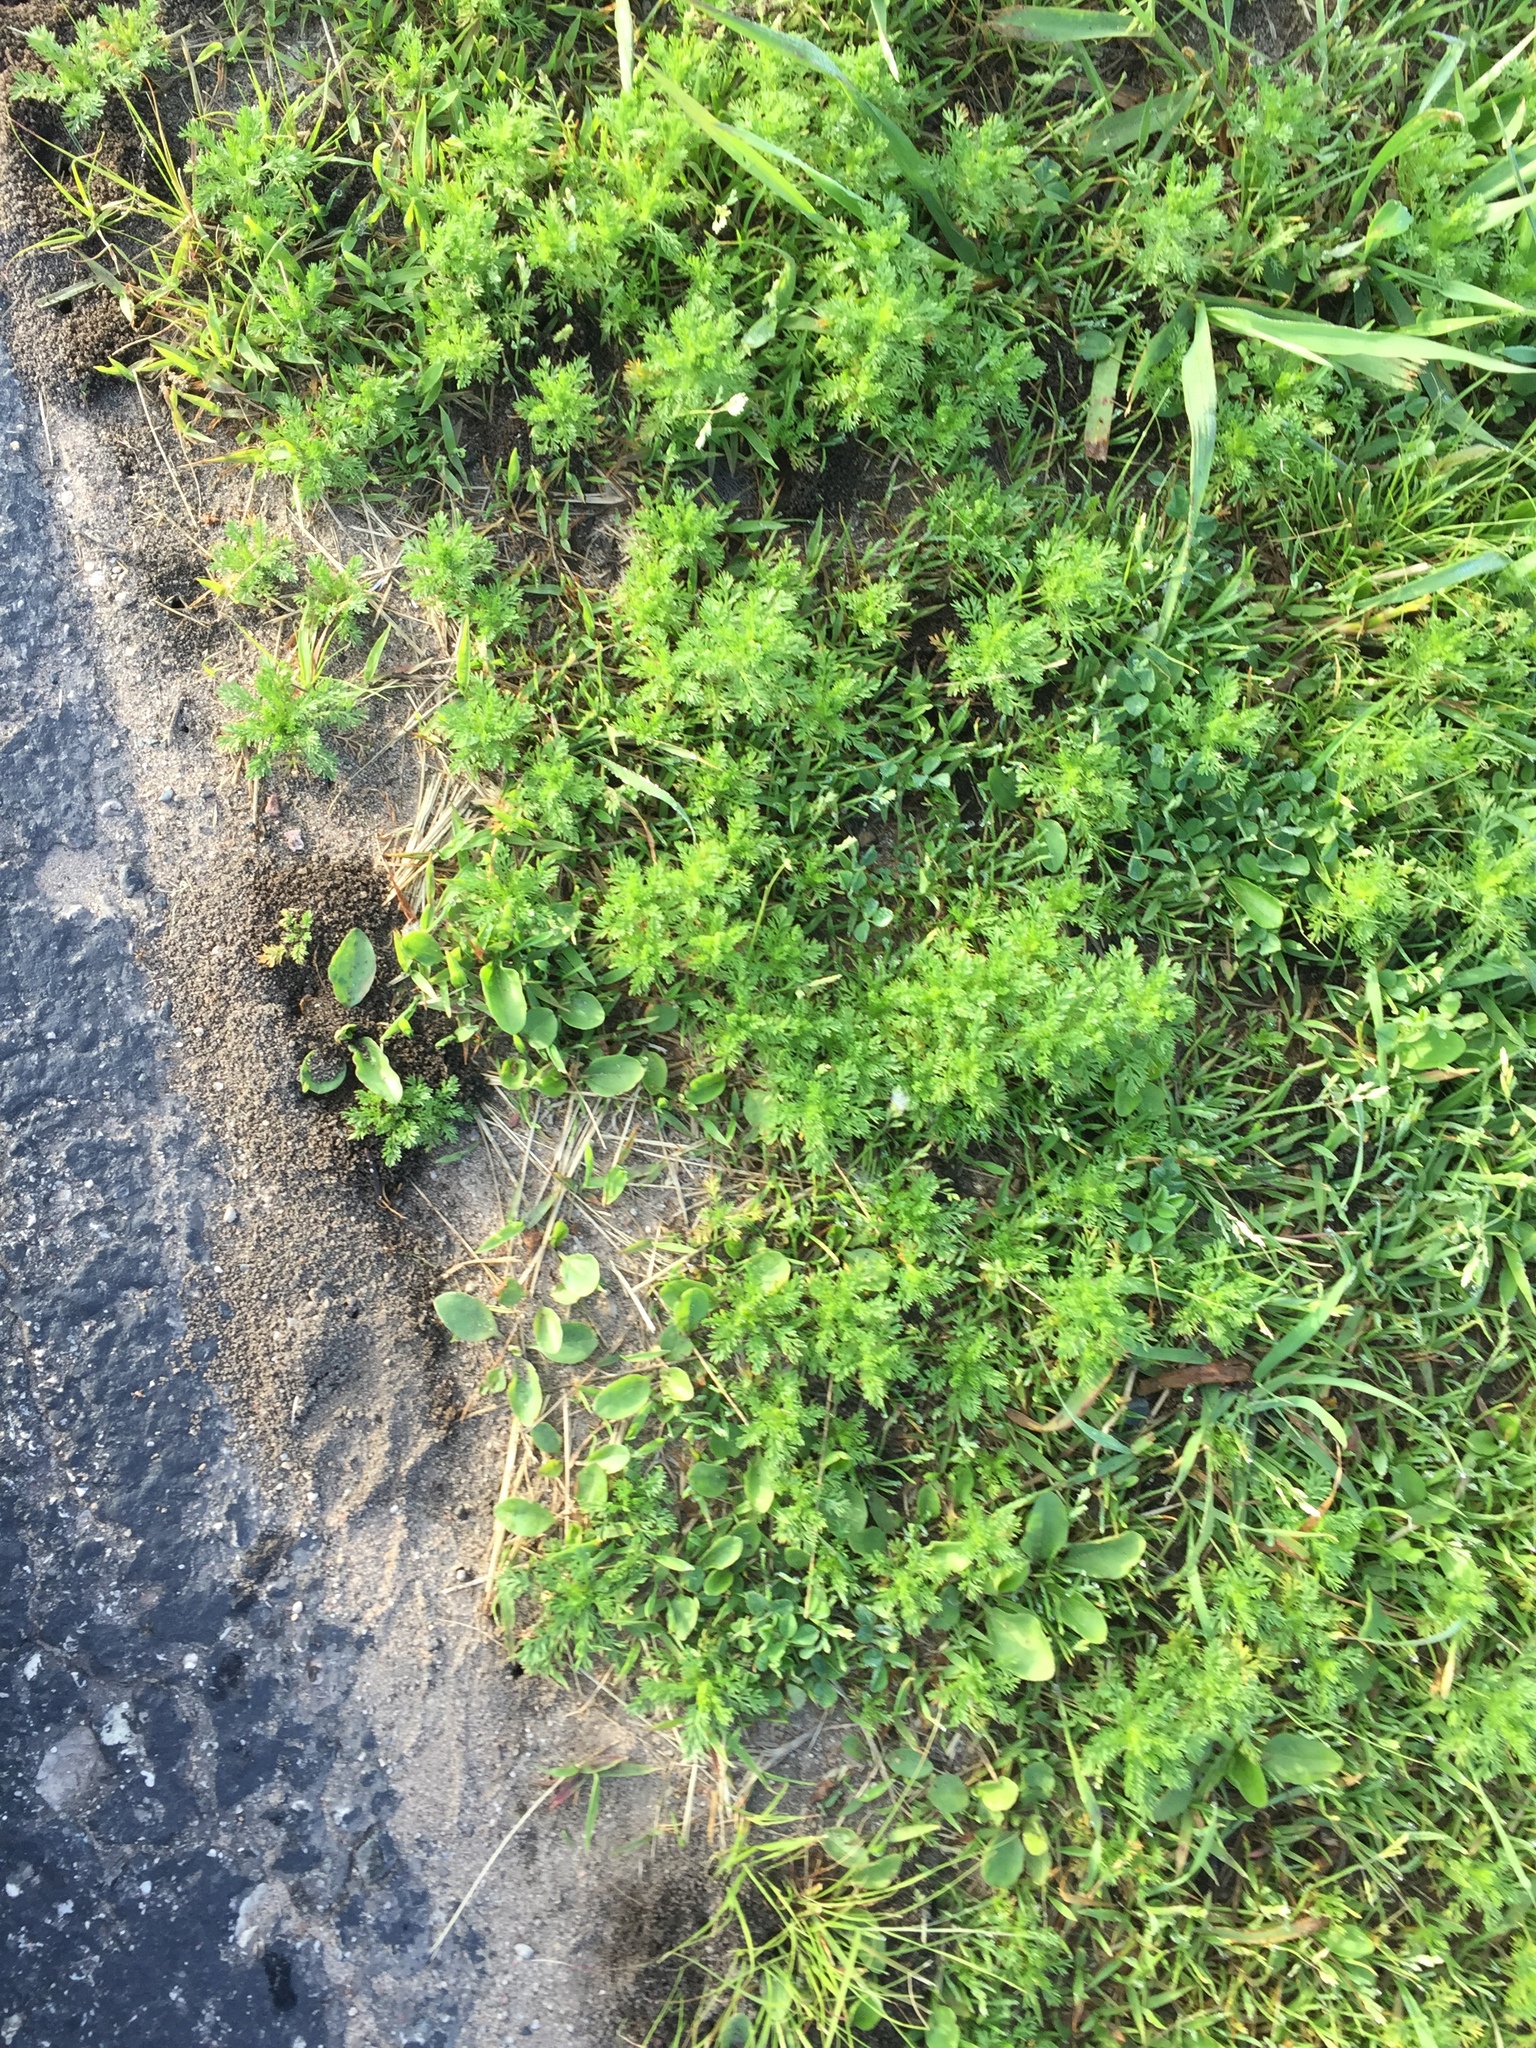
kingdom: Plantae
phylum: Tracheophyta
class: Magnoliopsida
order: Asterales
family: Asteraceae
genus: Matricaria
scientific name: Matricaria discoidea
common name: Disc mayweed
